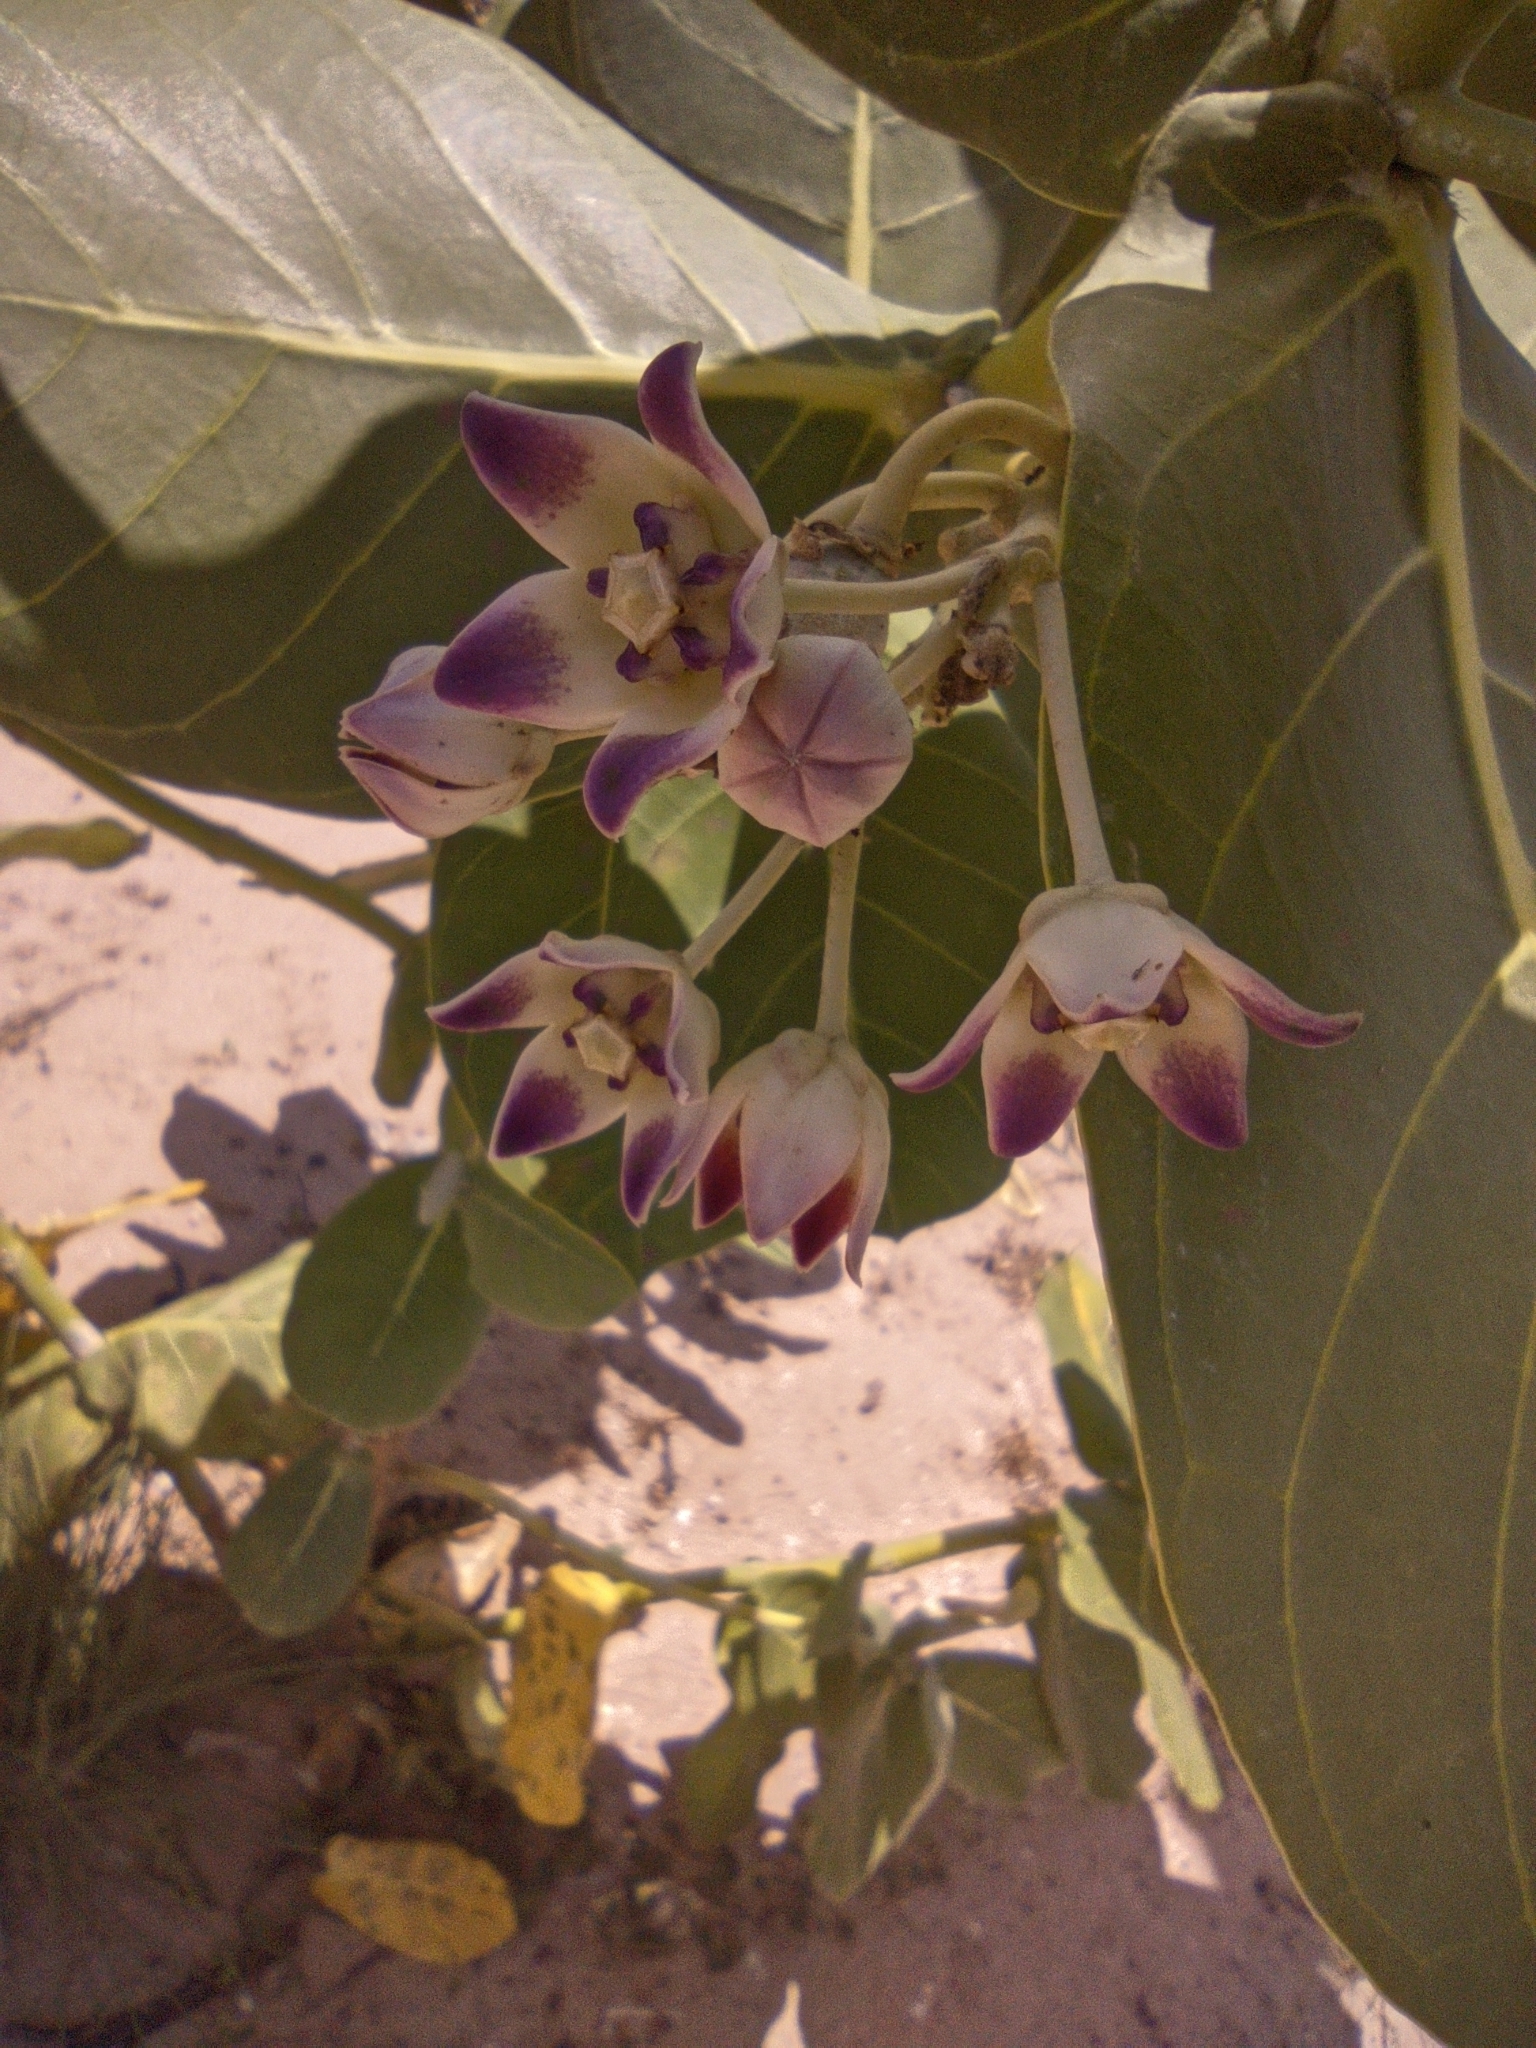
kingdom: Plantae
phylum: Tracheophyta
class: Magnoliopsida
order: Gentianales
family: Apocynaceae
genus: Calotropis
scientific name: Calotropis procera
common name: Roostertree
